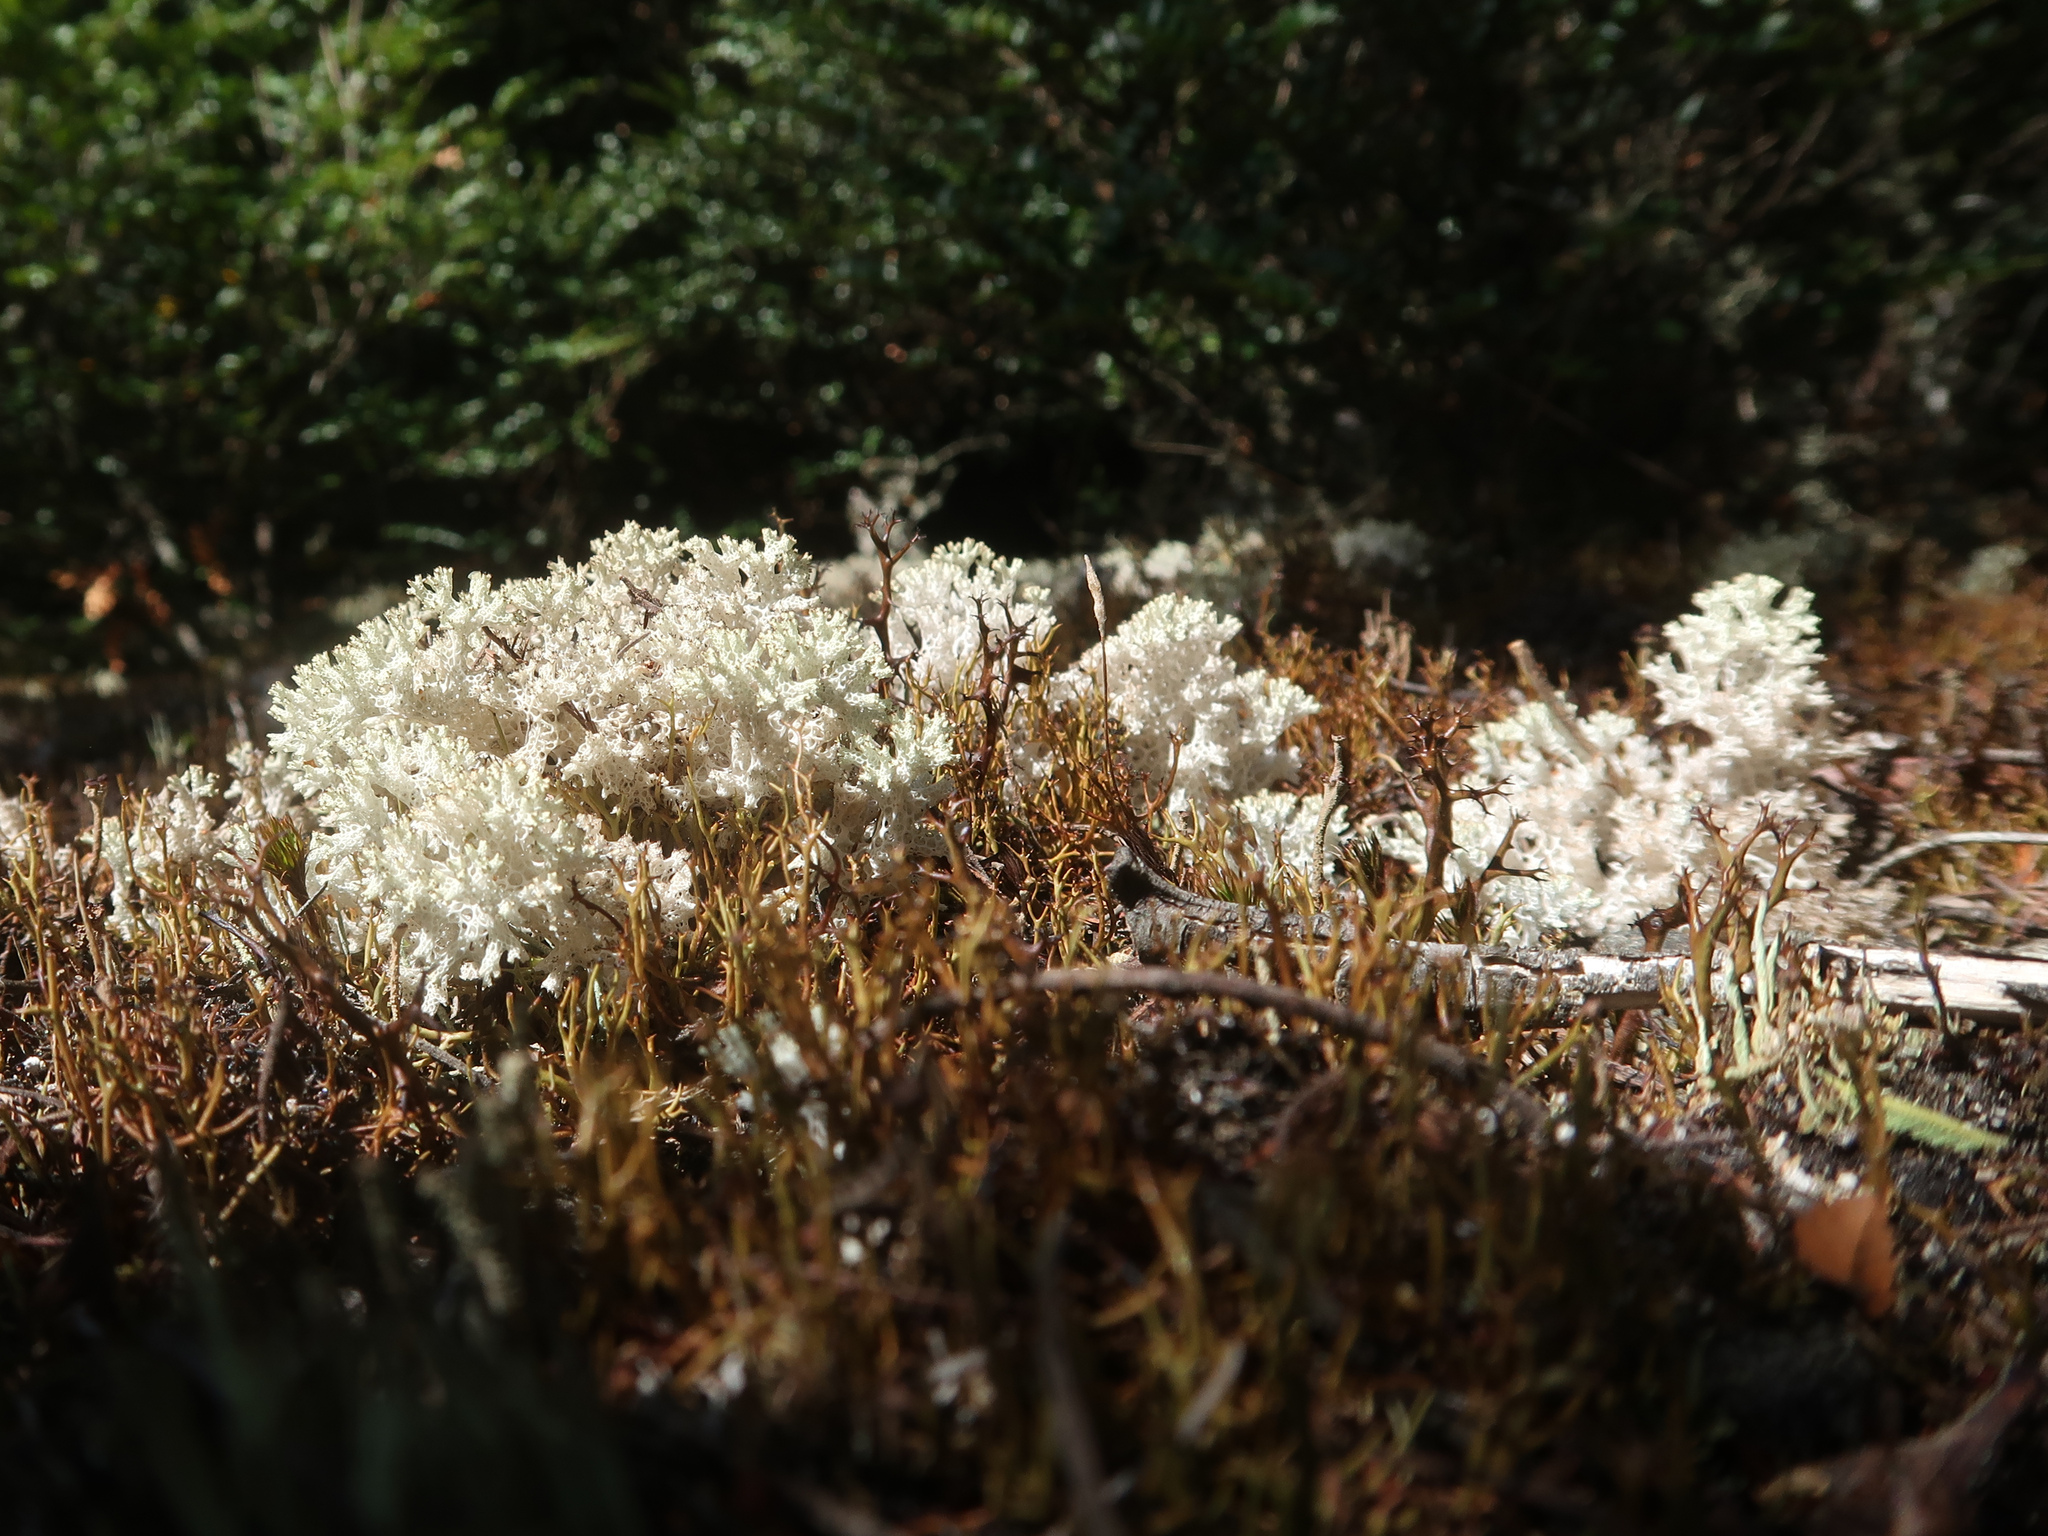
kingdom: Fungi
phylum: Ascomycota
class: Lecanoromycetes
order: Lecanorales
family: Cladoniaceae
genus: Pulchrocladia
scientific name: Pulchrocladia retipora
